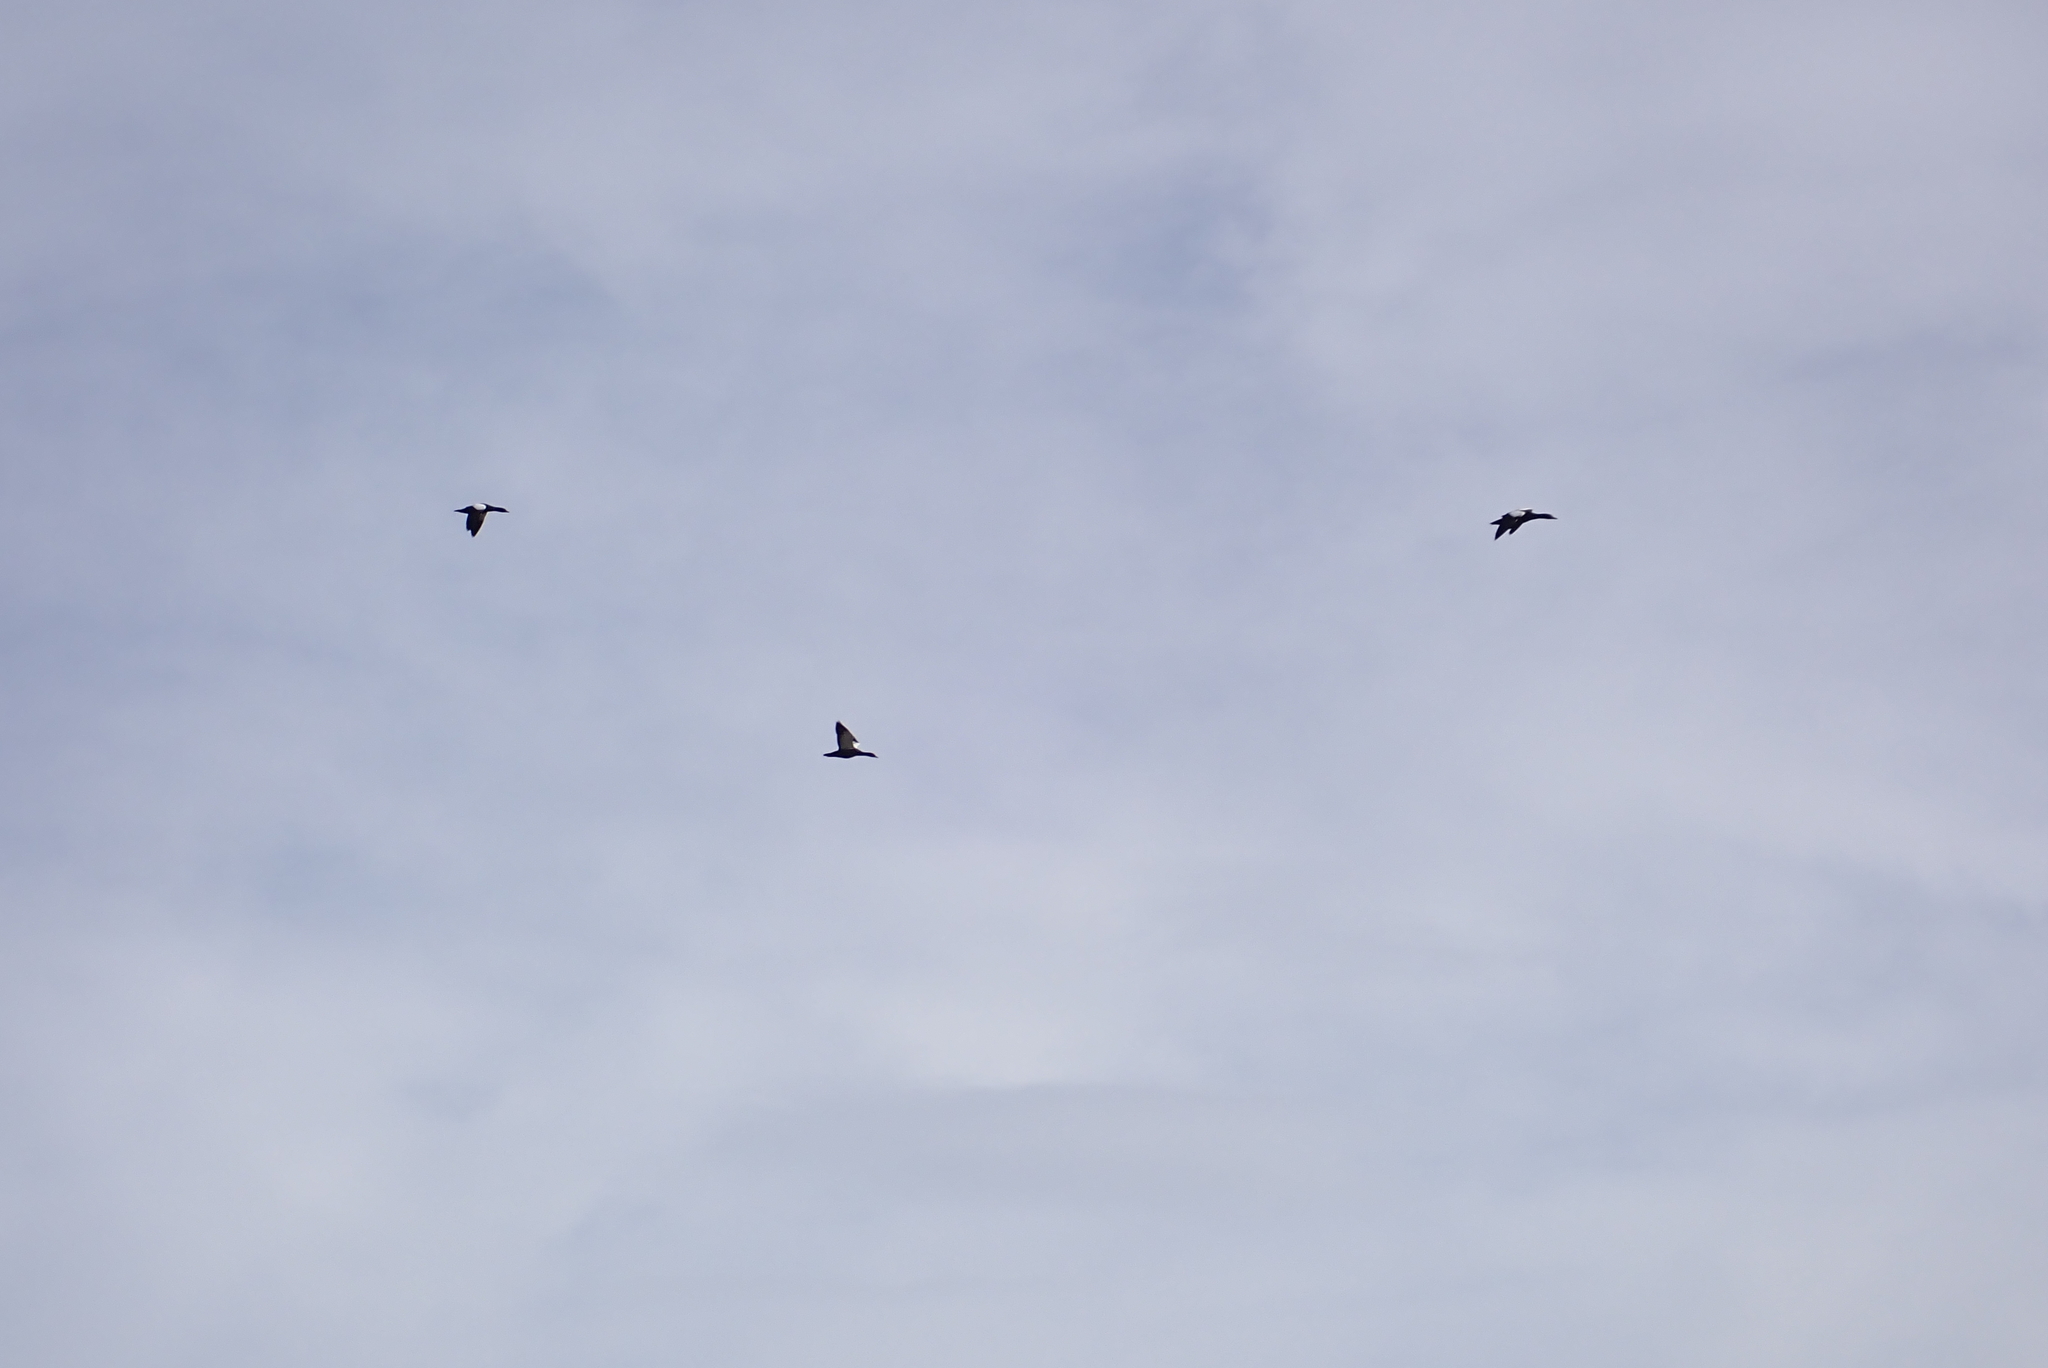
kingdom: Animalia
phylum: Chordata
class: Aves
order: Anseriformes
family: Anatidae
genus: Tadorna
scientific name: Tadorna variegata
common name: Paradise shelduck
